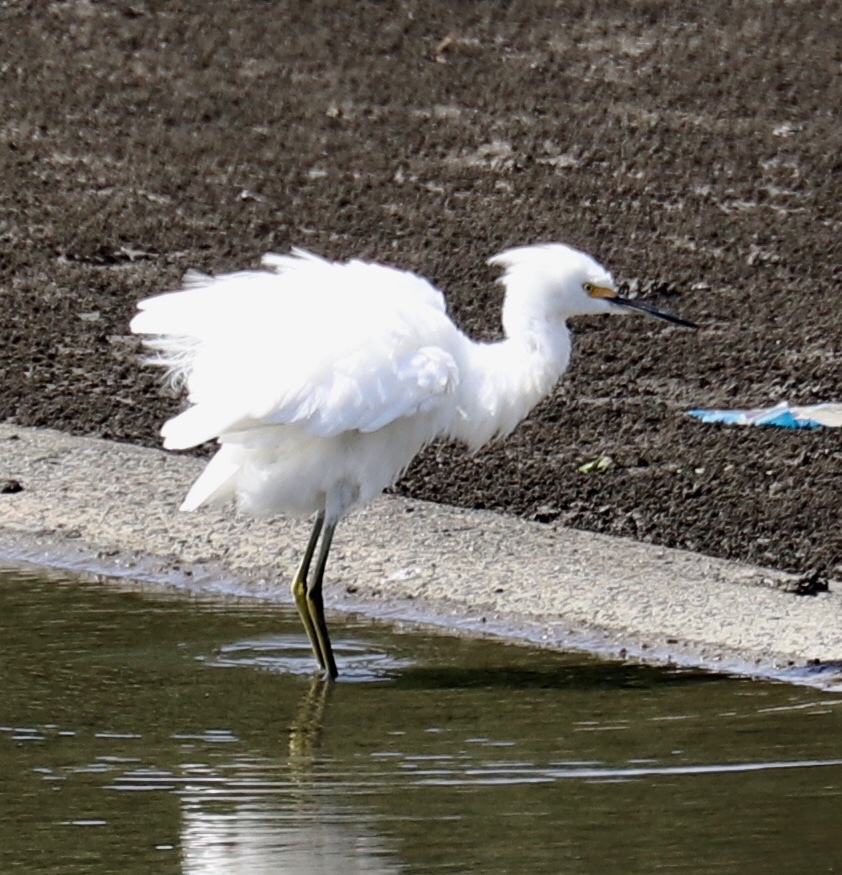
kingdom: Animalia
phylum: Chordata
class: Aves
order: Pelecaniformes
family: Ardeidae
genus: Egretta
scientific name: Egretta thula
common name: Snowy egret
